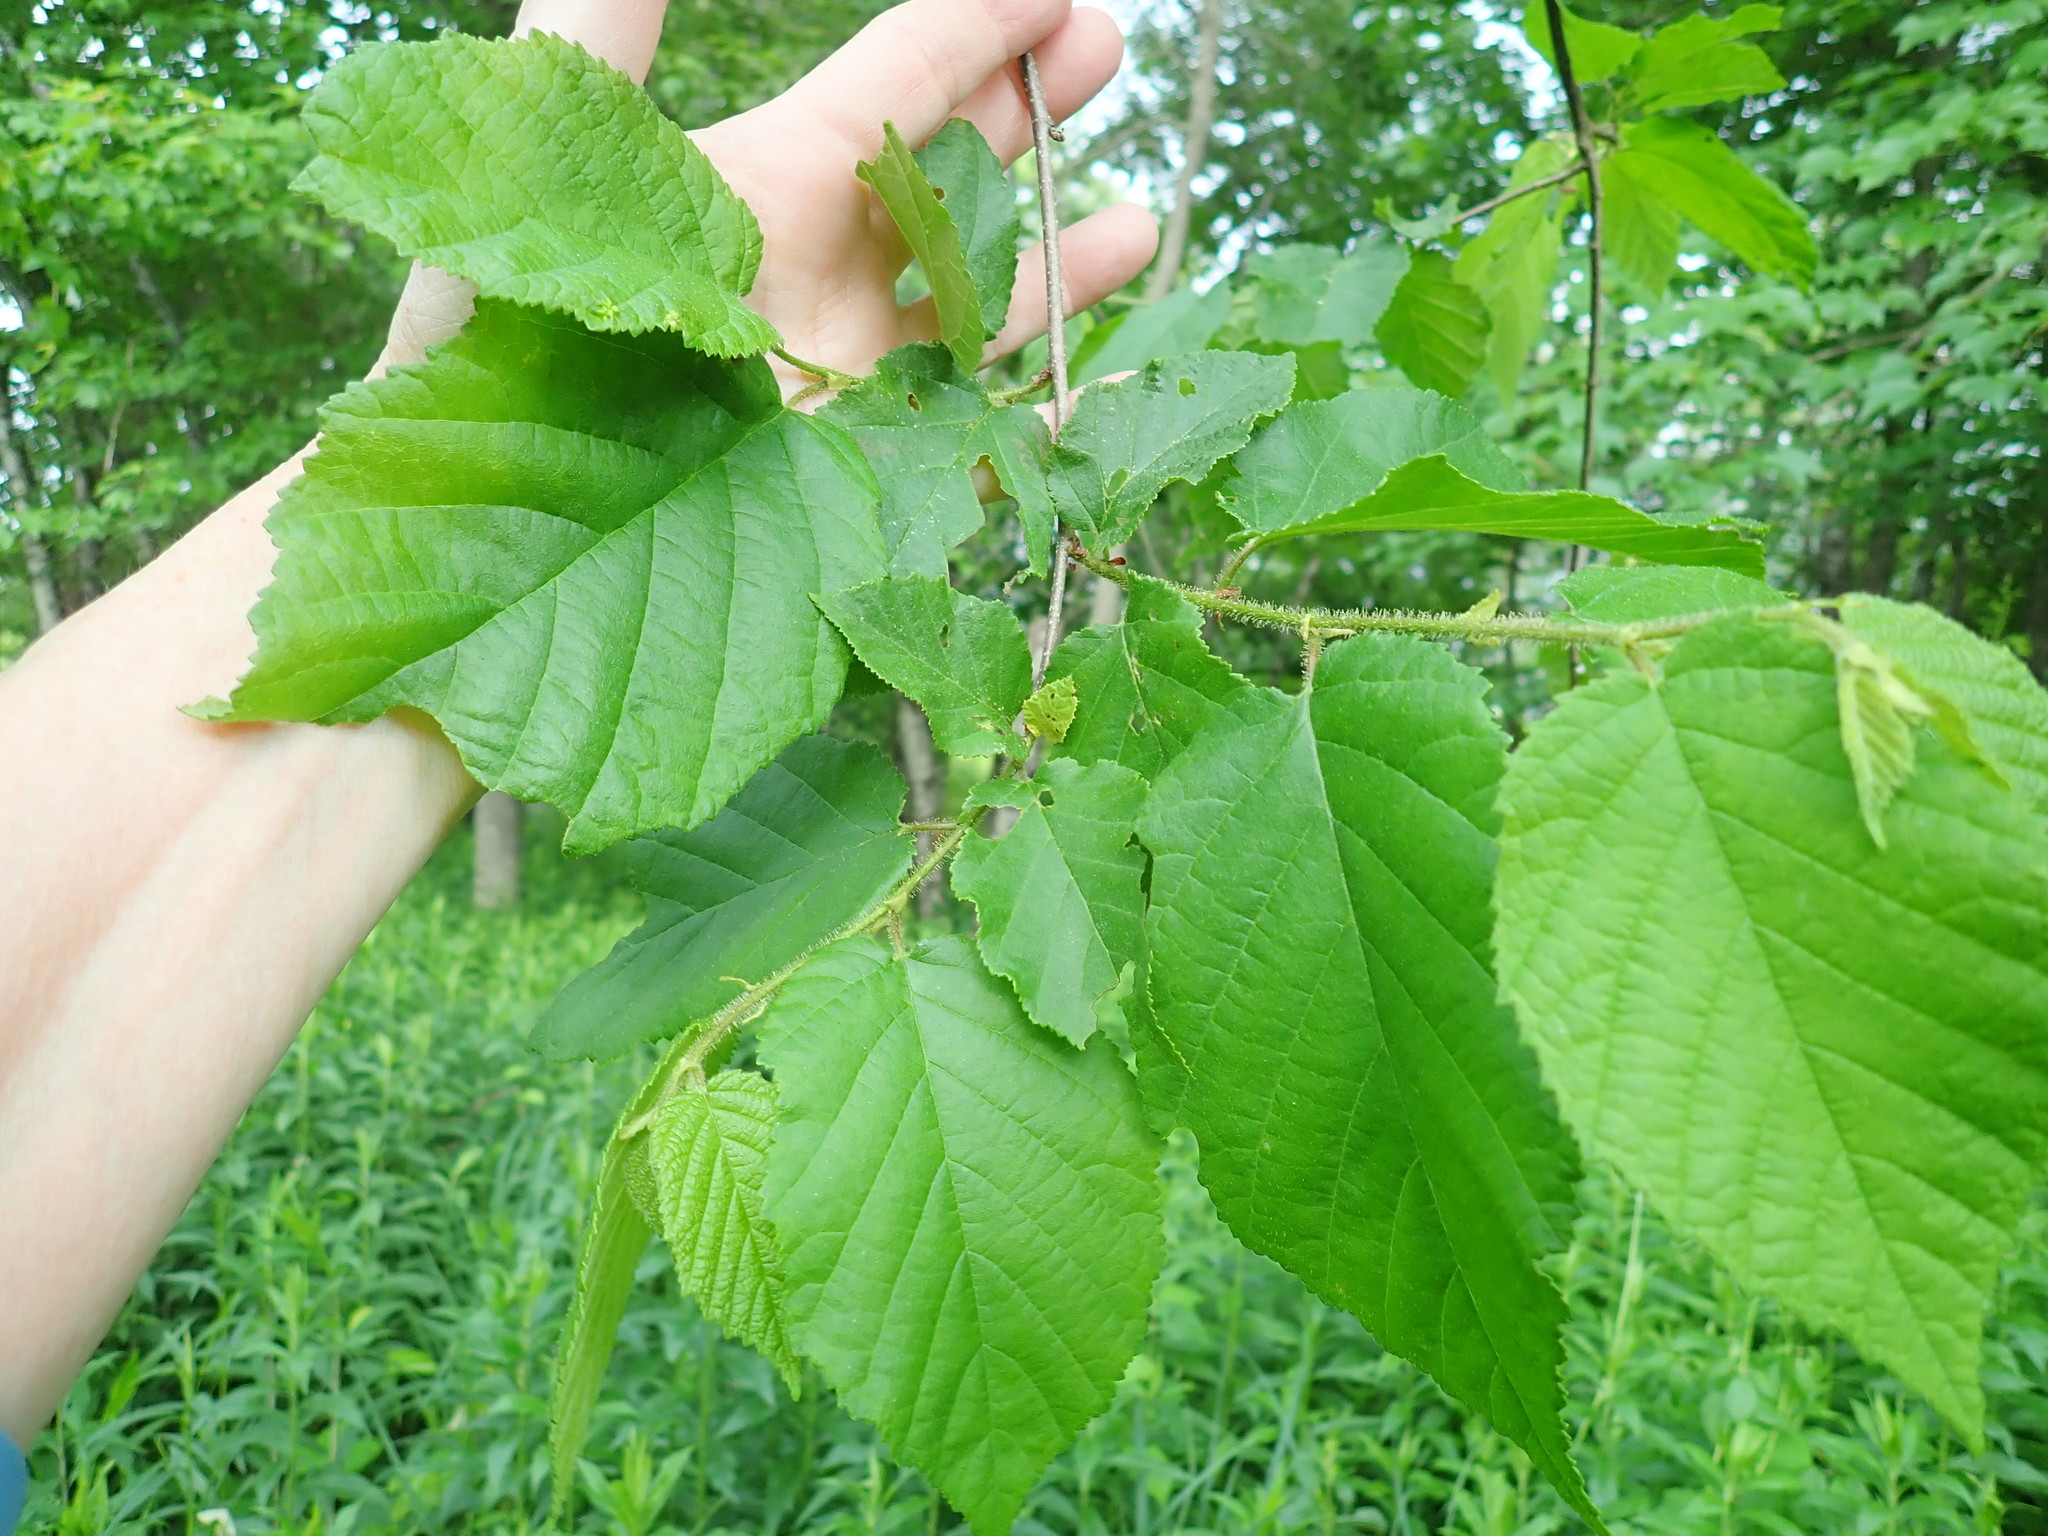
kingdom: Plantae
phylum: Tracheophyta
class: Magnoliopsida
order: Fagales
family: Betulaceae
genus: Corylus
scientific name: Corylus americana
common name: American hazel
